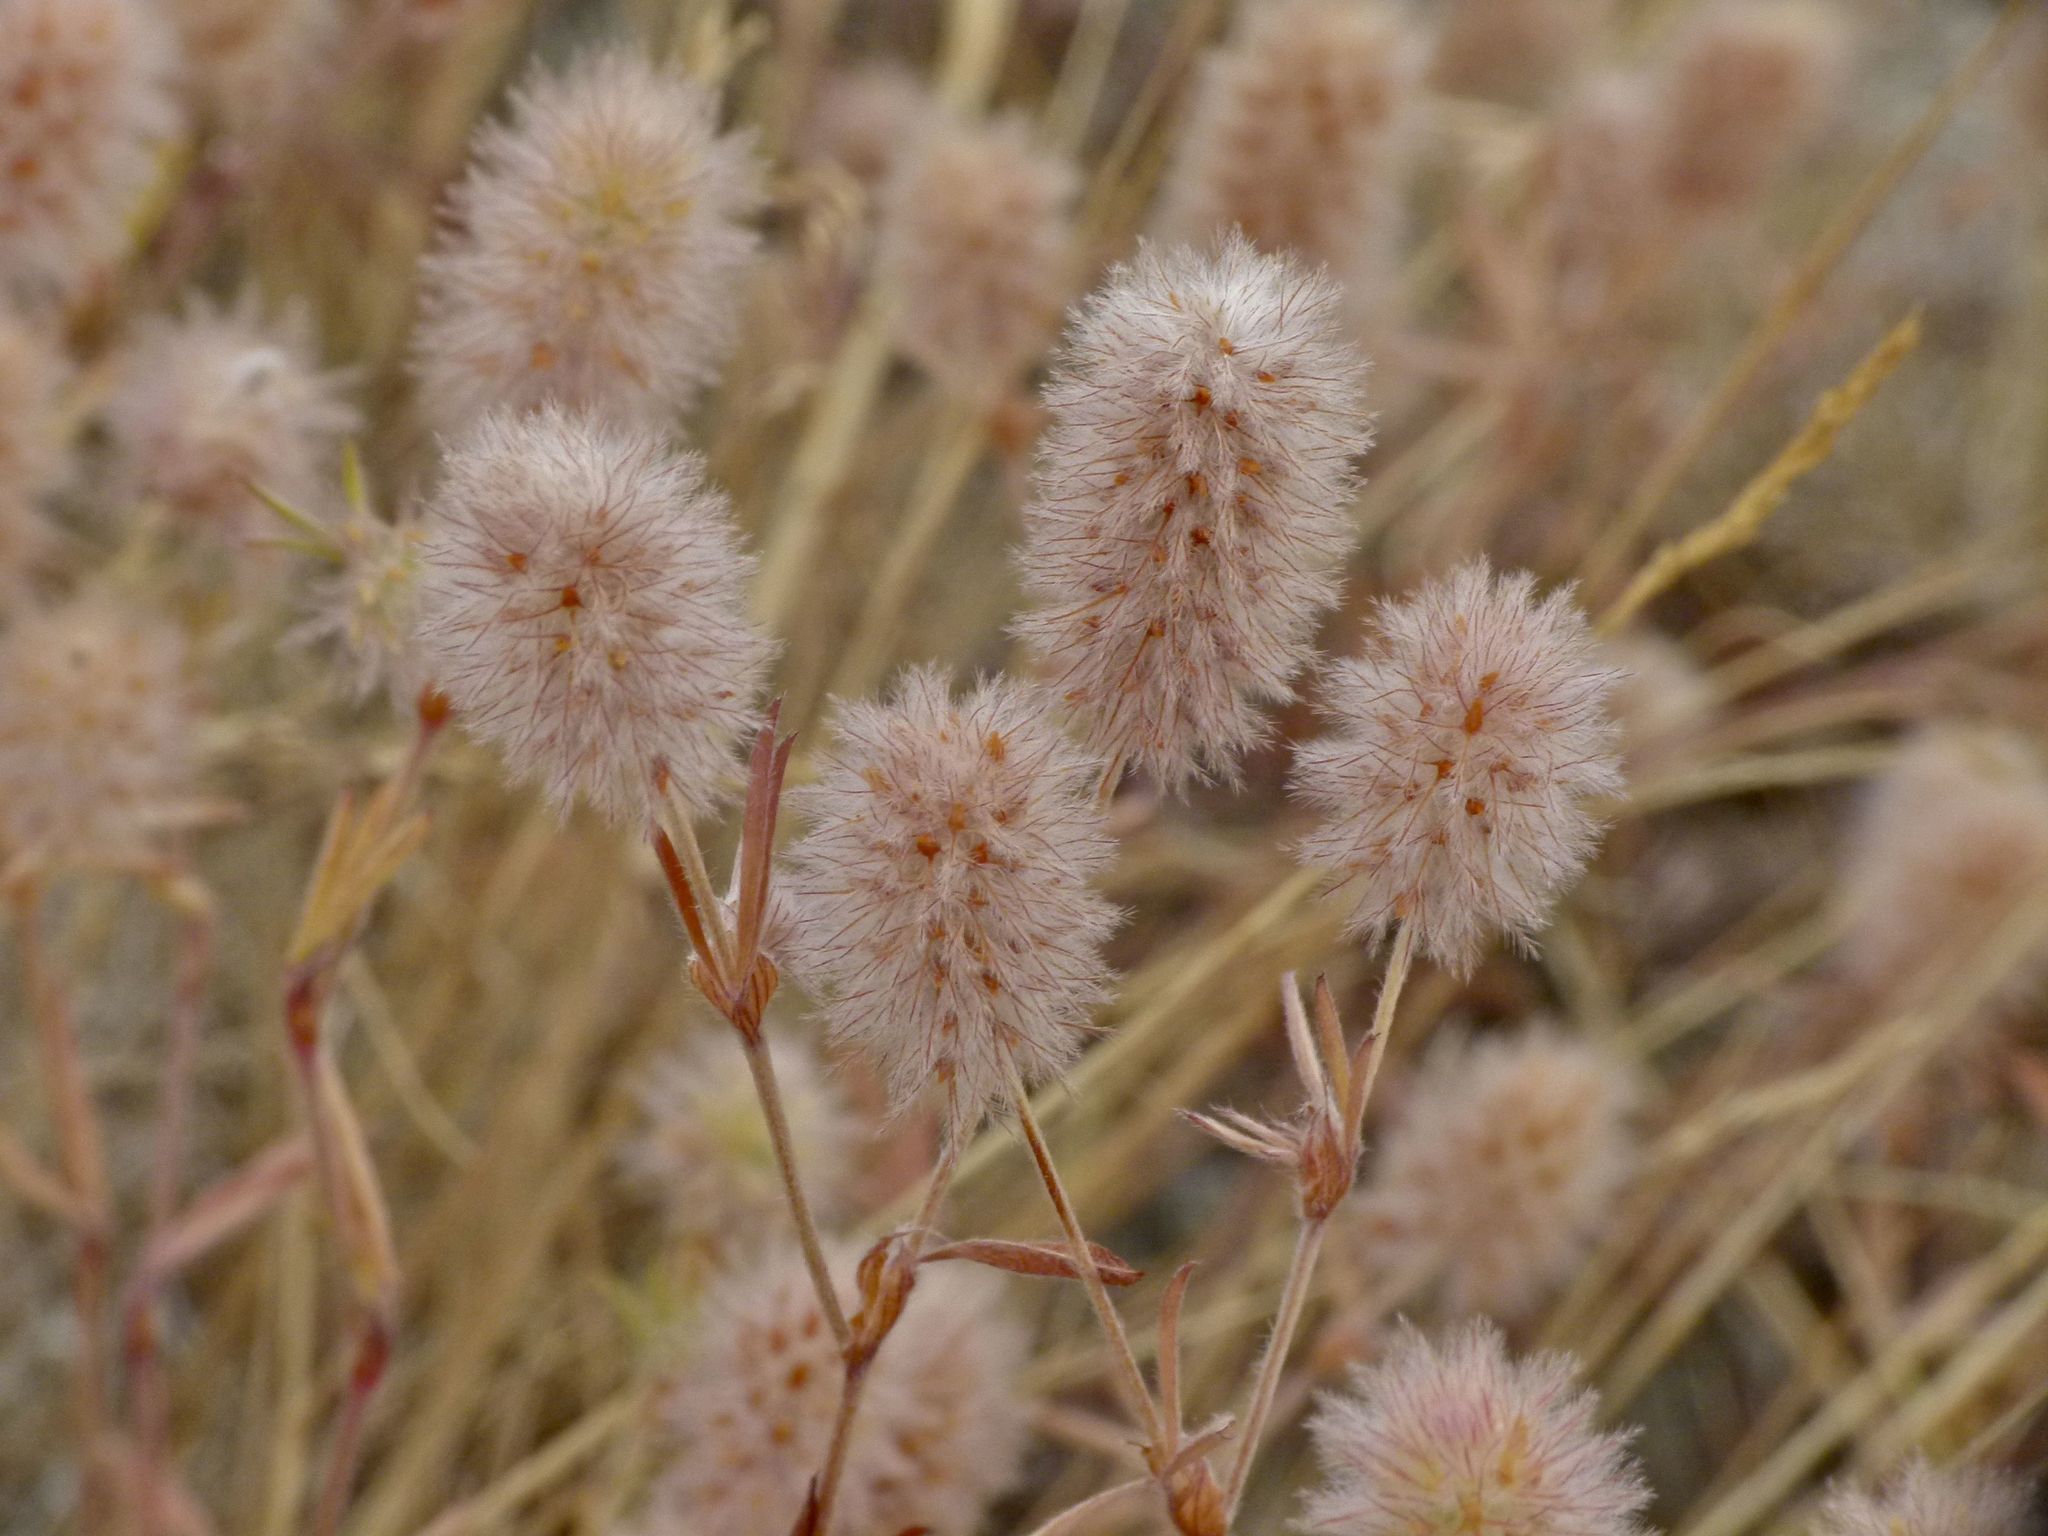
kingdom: Plantae
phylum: Tracheophyta
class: Magnoliopsida
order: Fabales
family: Fabaceae
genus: Trifolium
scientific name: Trifolium arvense
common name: Hare's-foot clover
